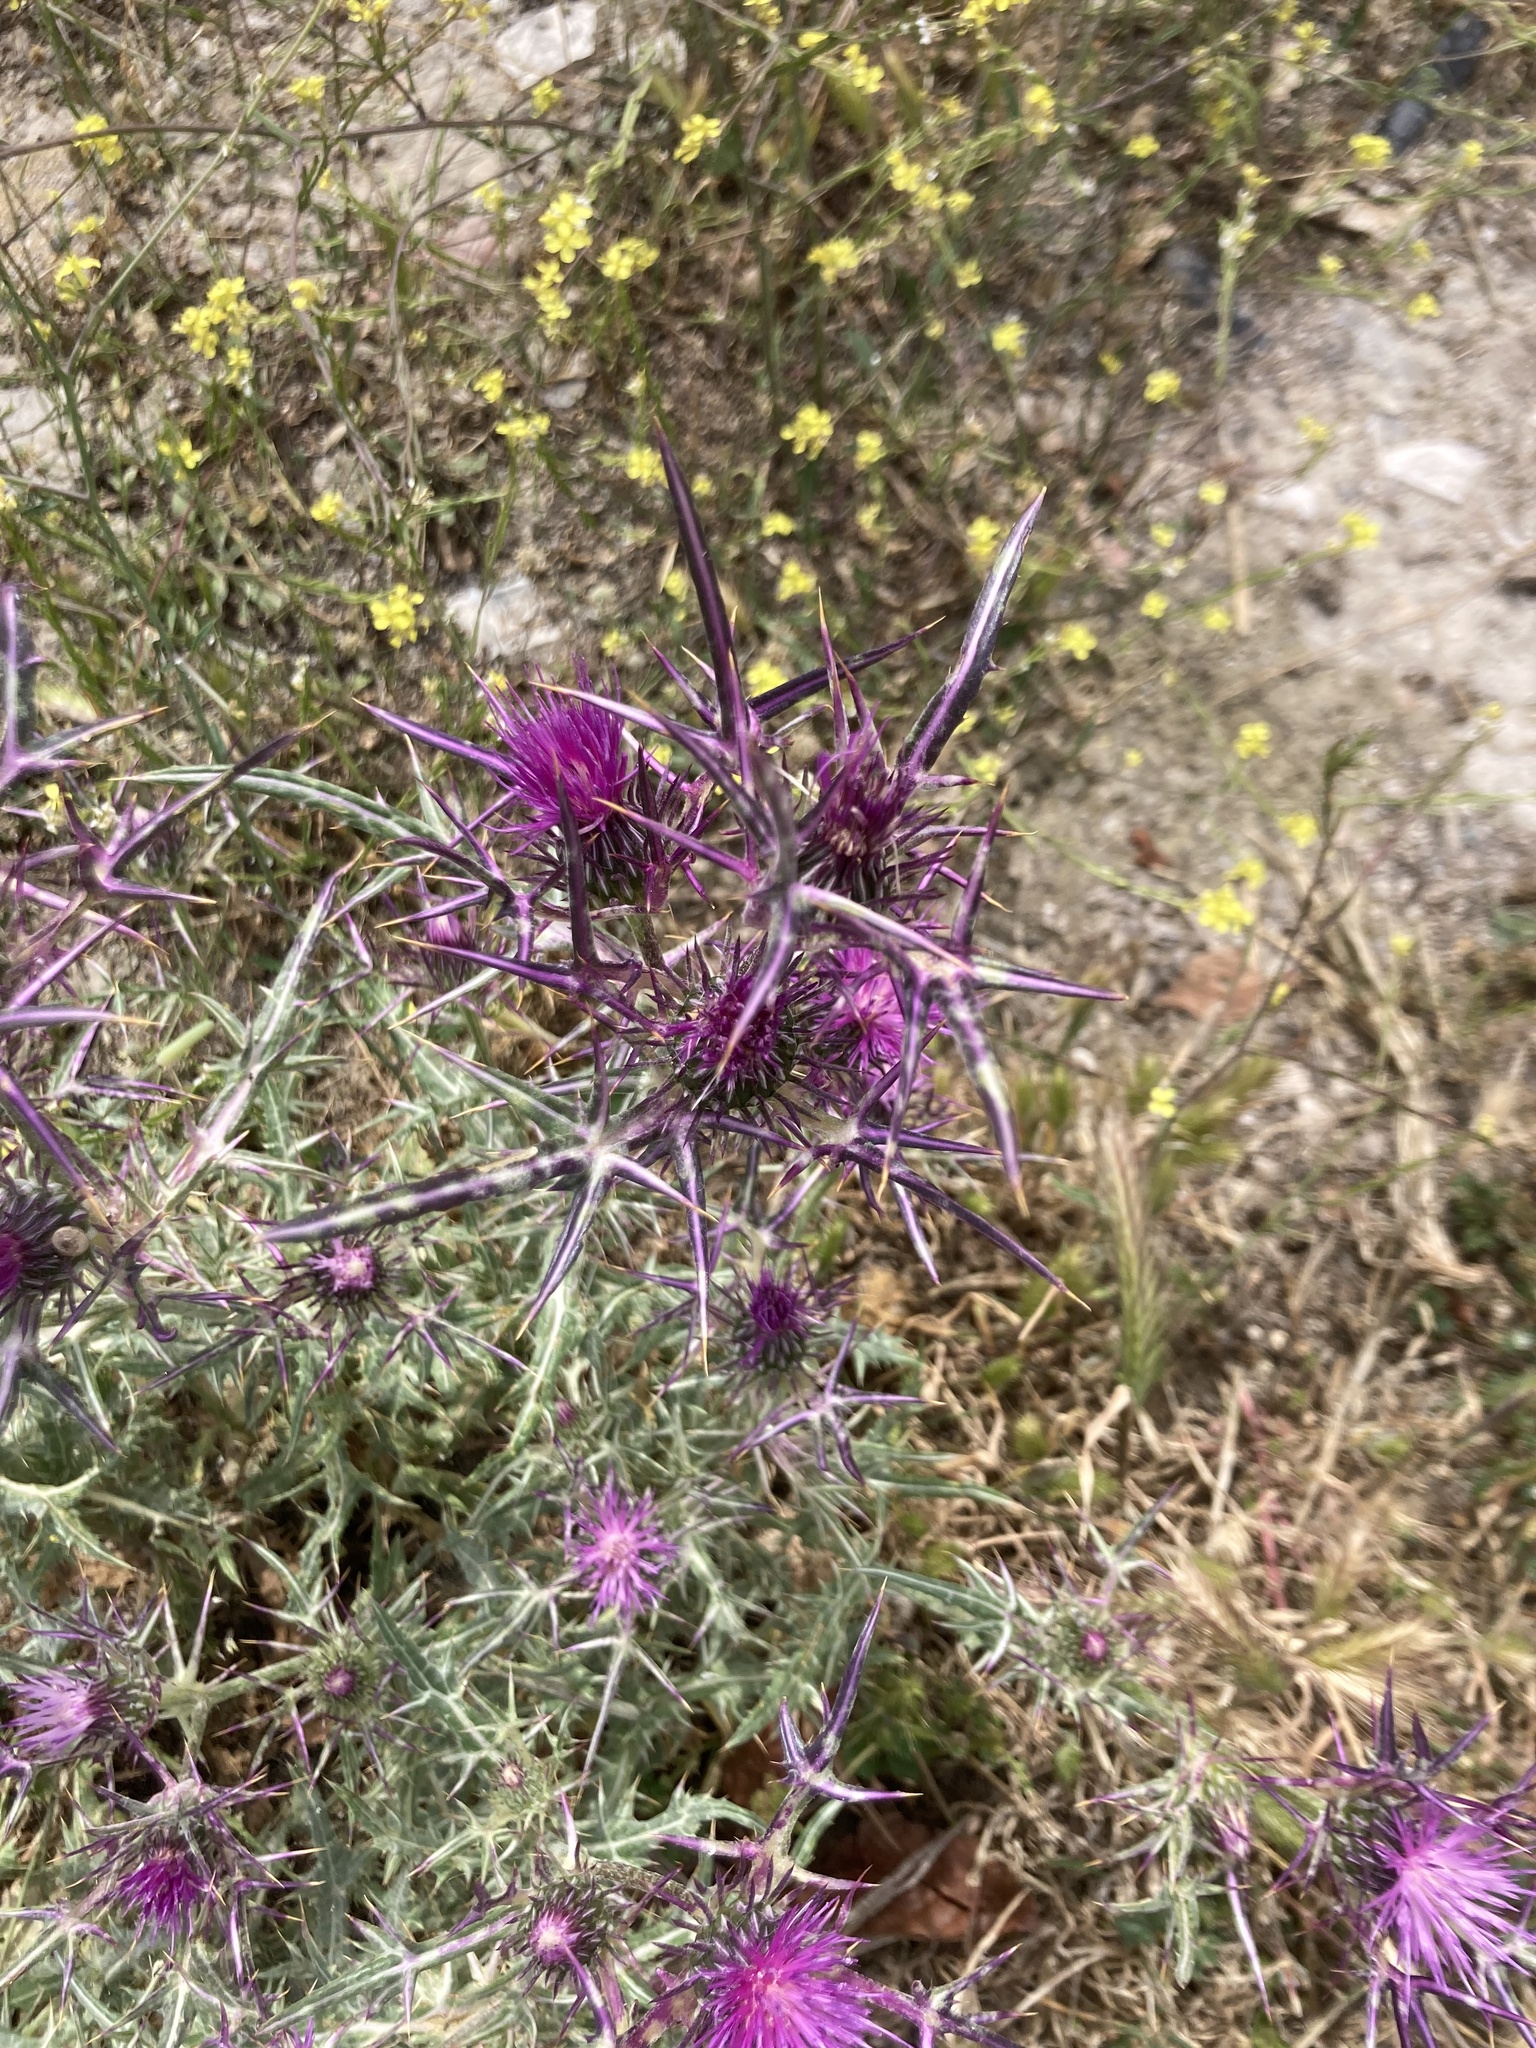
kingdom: Plantae
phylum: Tracheophyta
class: Magnoliopsida
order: Asterales
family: Asteraceae
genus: Notobasis
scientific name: Notobasis syriaca
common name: Syrian thistle
